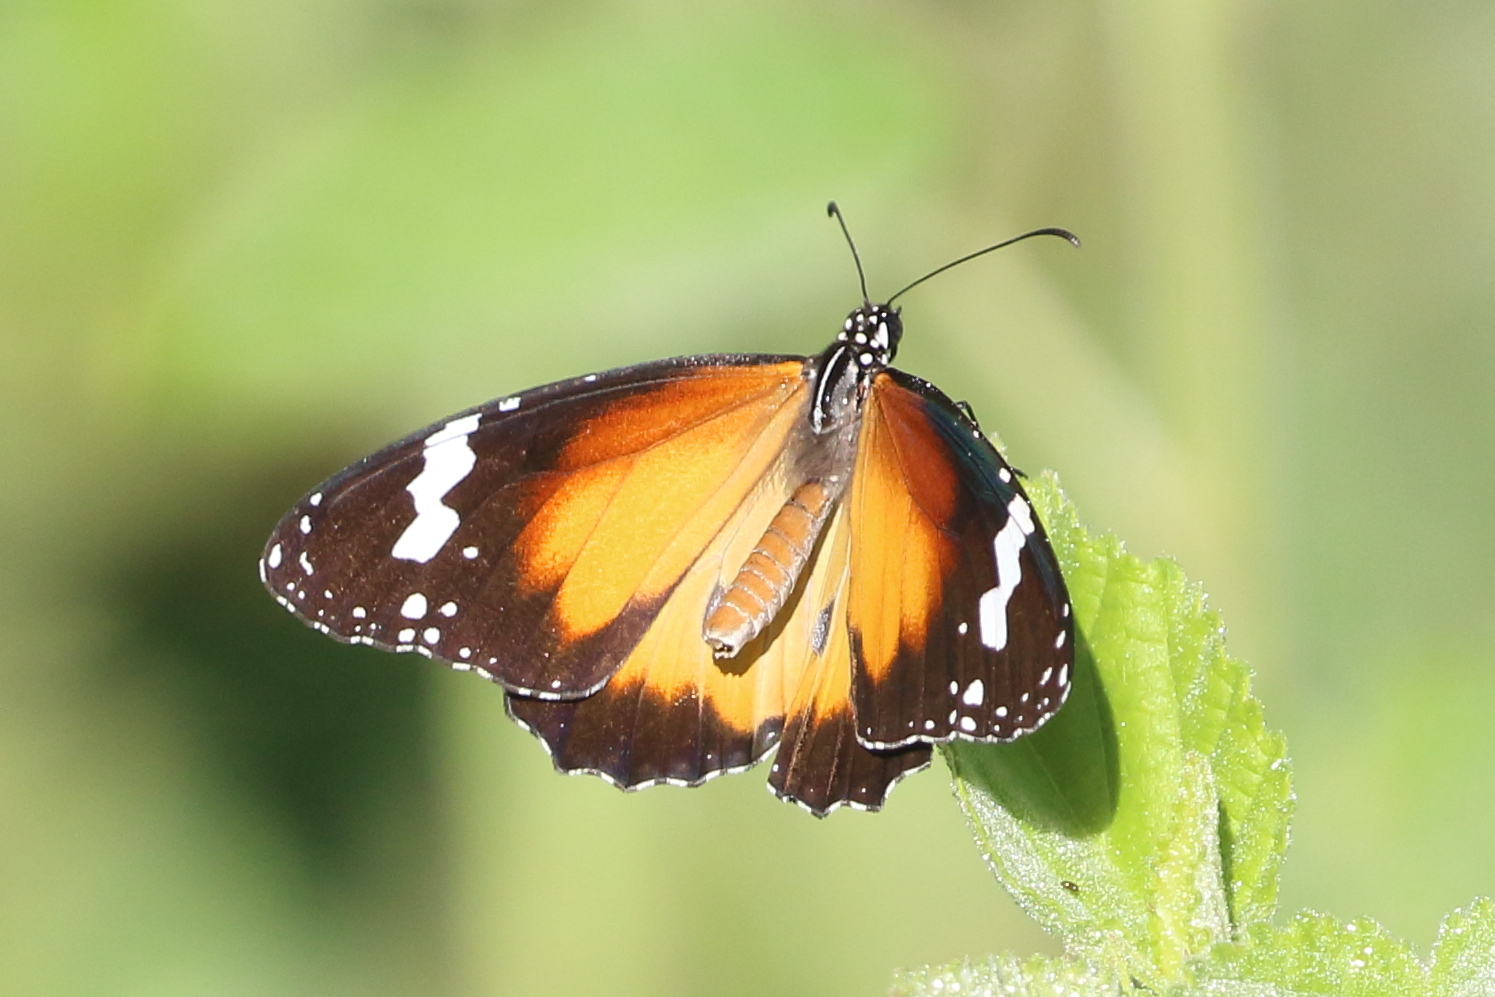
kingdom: Animalia
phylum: Arthropoda
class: Insecta
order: Lepidoptera
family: Nymphalidae
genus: Danaus
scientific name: Danaus chrysippus
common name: Plain tiger
